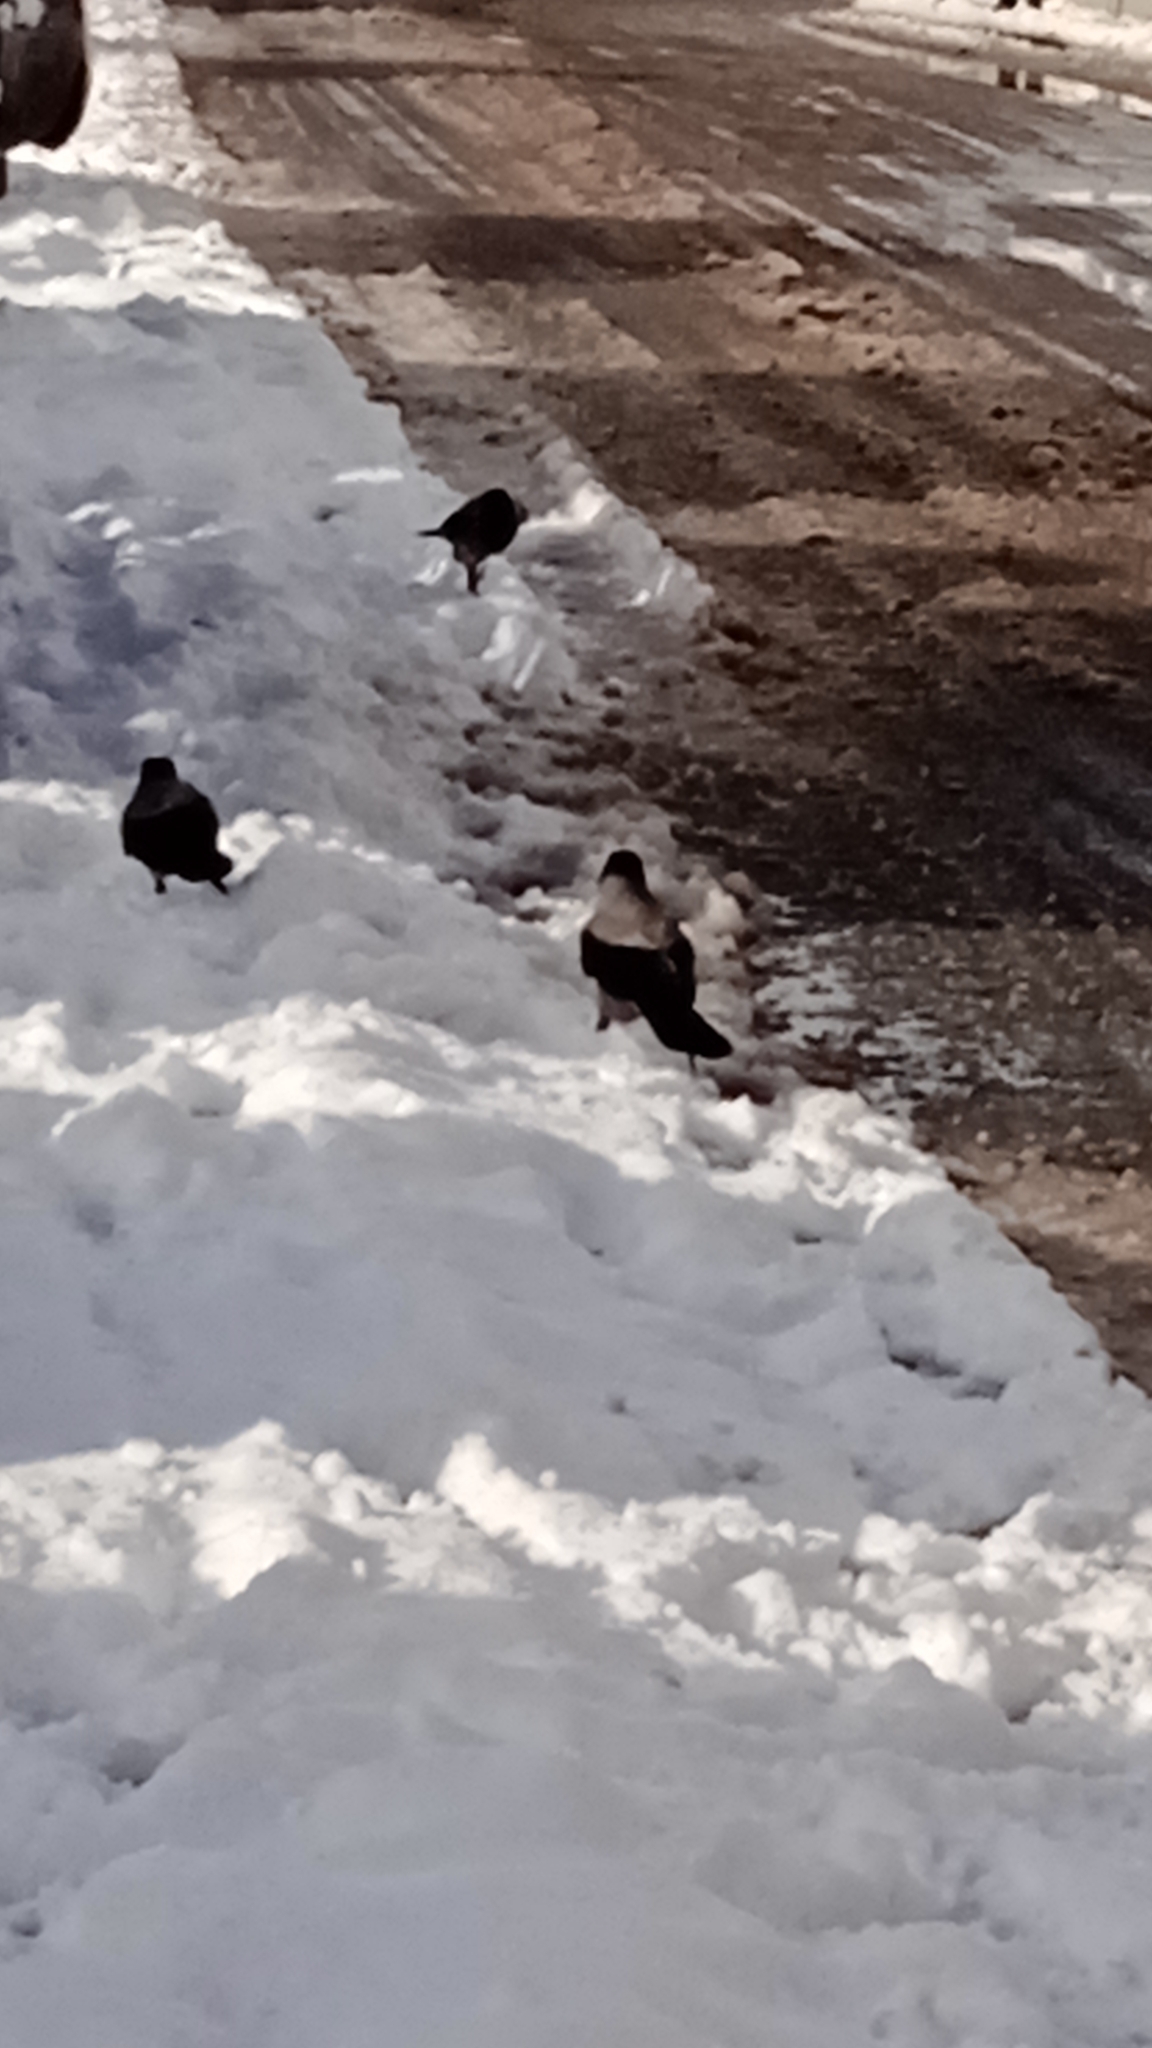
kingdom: Animalia
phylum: Chordata
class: Aves
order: Passeriformes
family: Corvidae
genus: Corvus
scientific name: Corvus cornix
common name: Hooded crow
